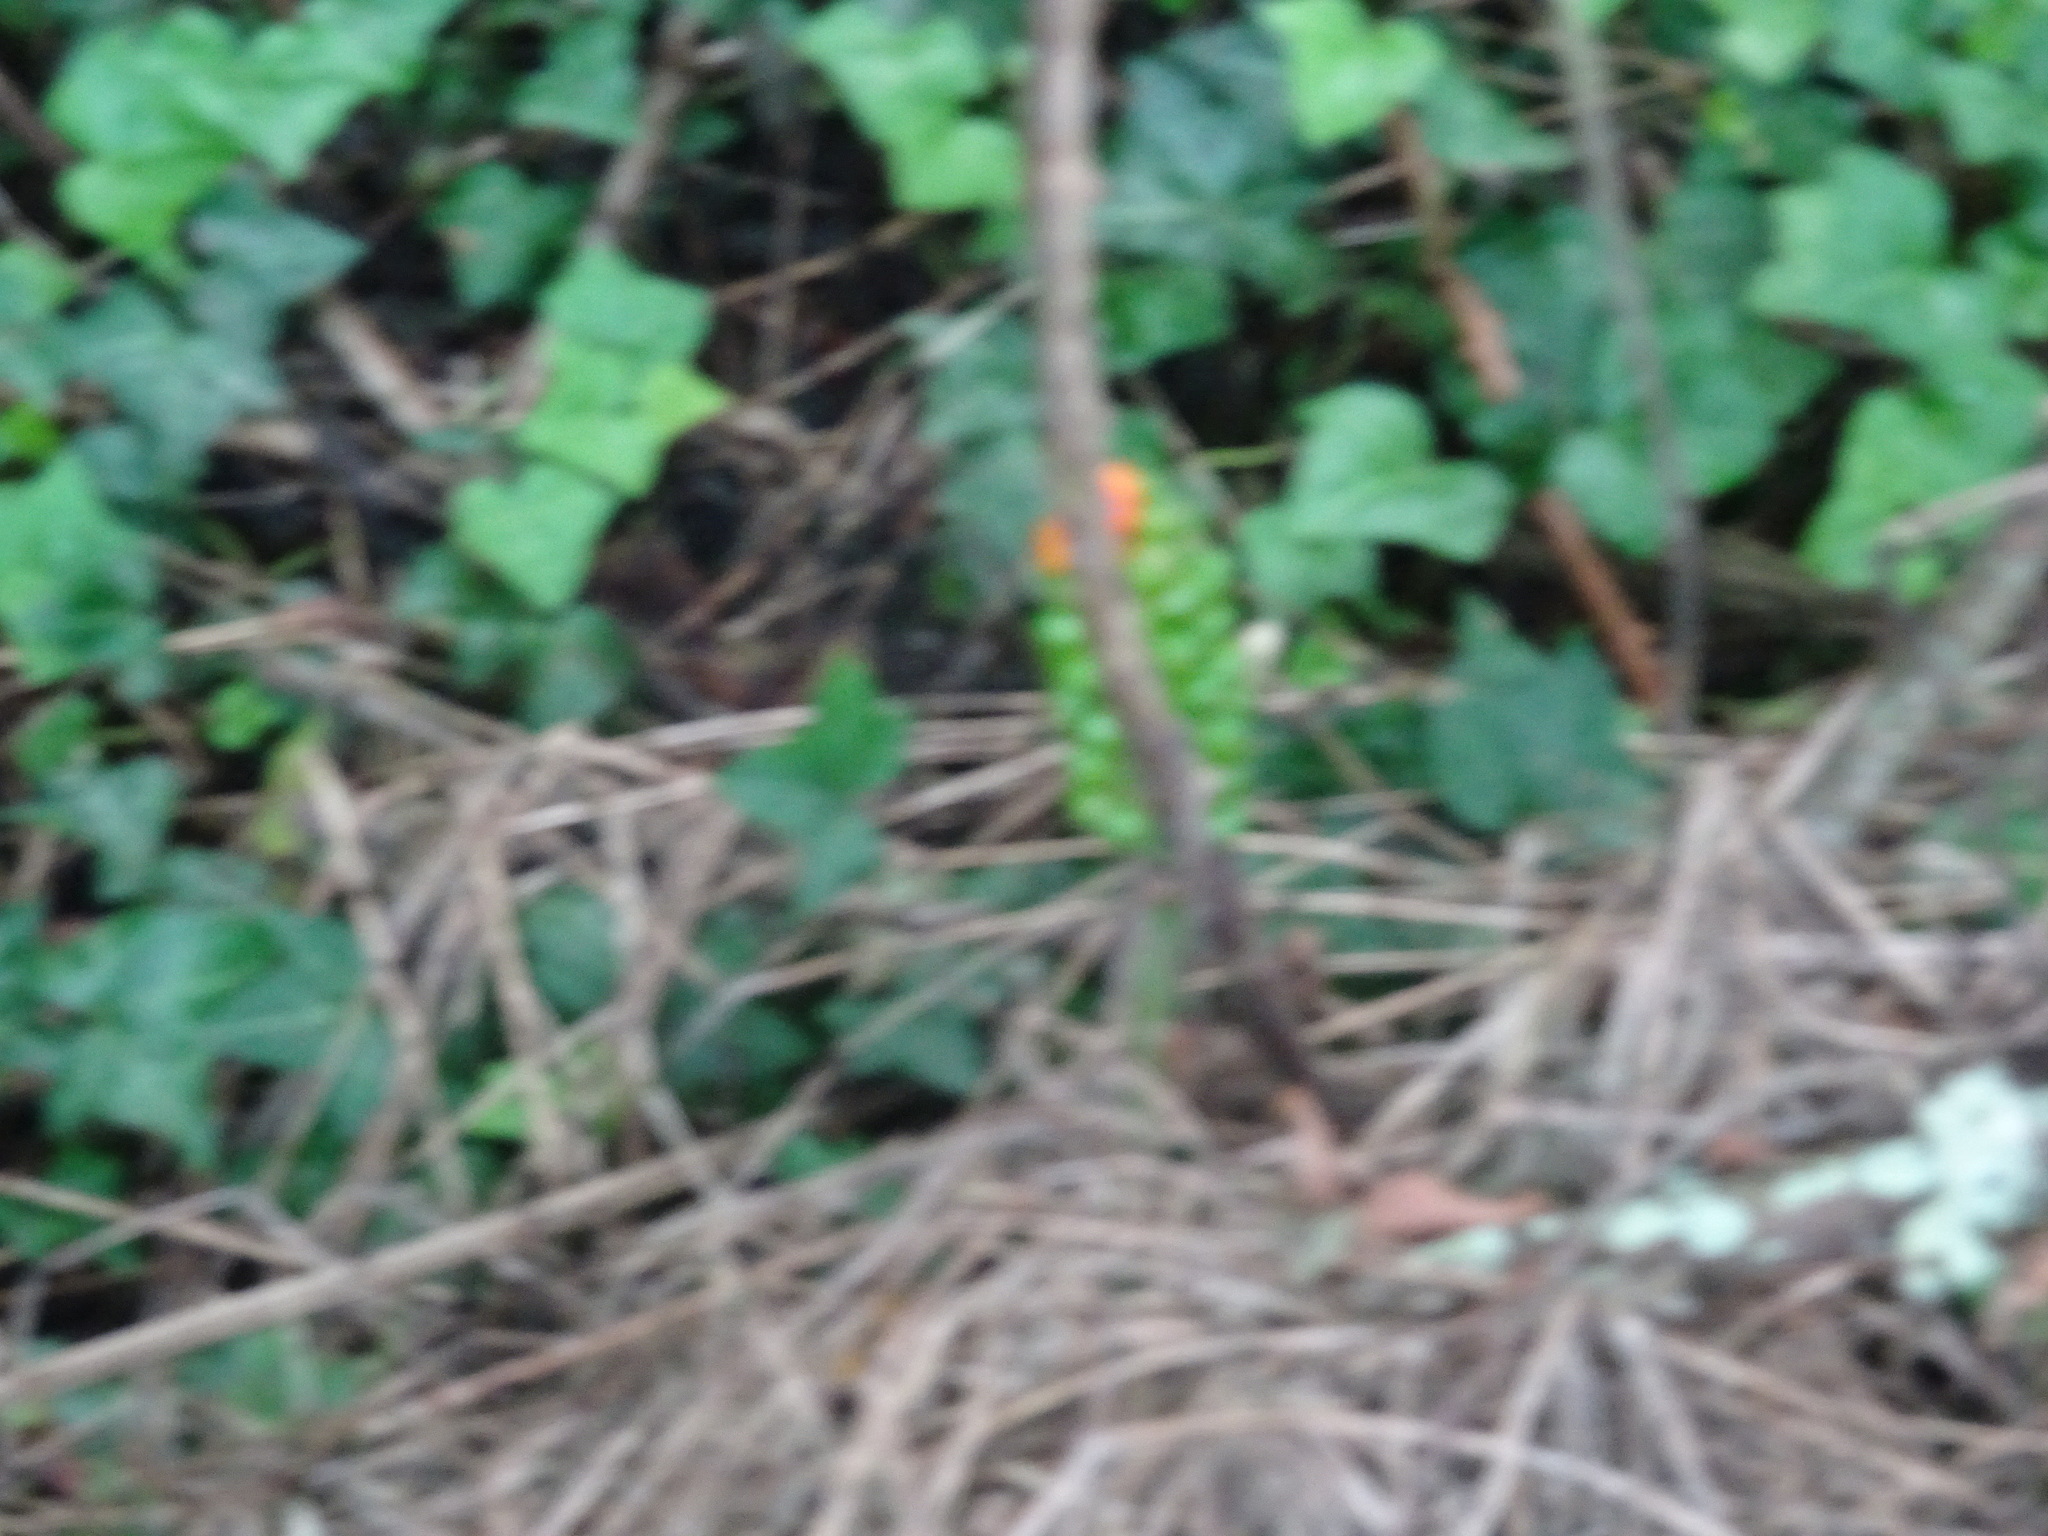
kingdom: Plantae
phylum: Tracheophyta
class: Liliopsida
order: Alismatales
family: Araceae
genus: Arum
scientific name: Arum
